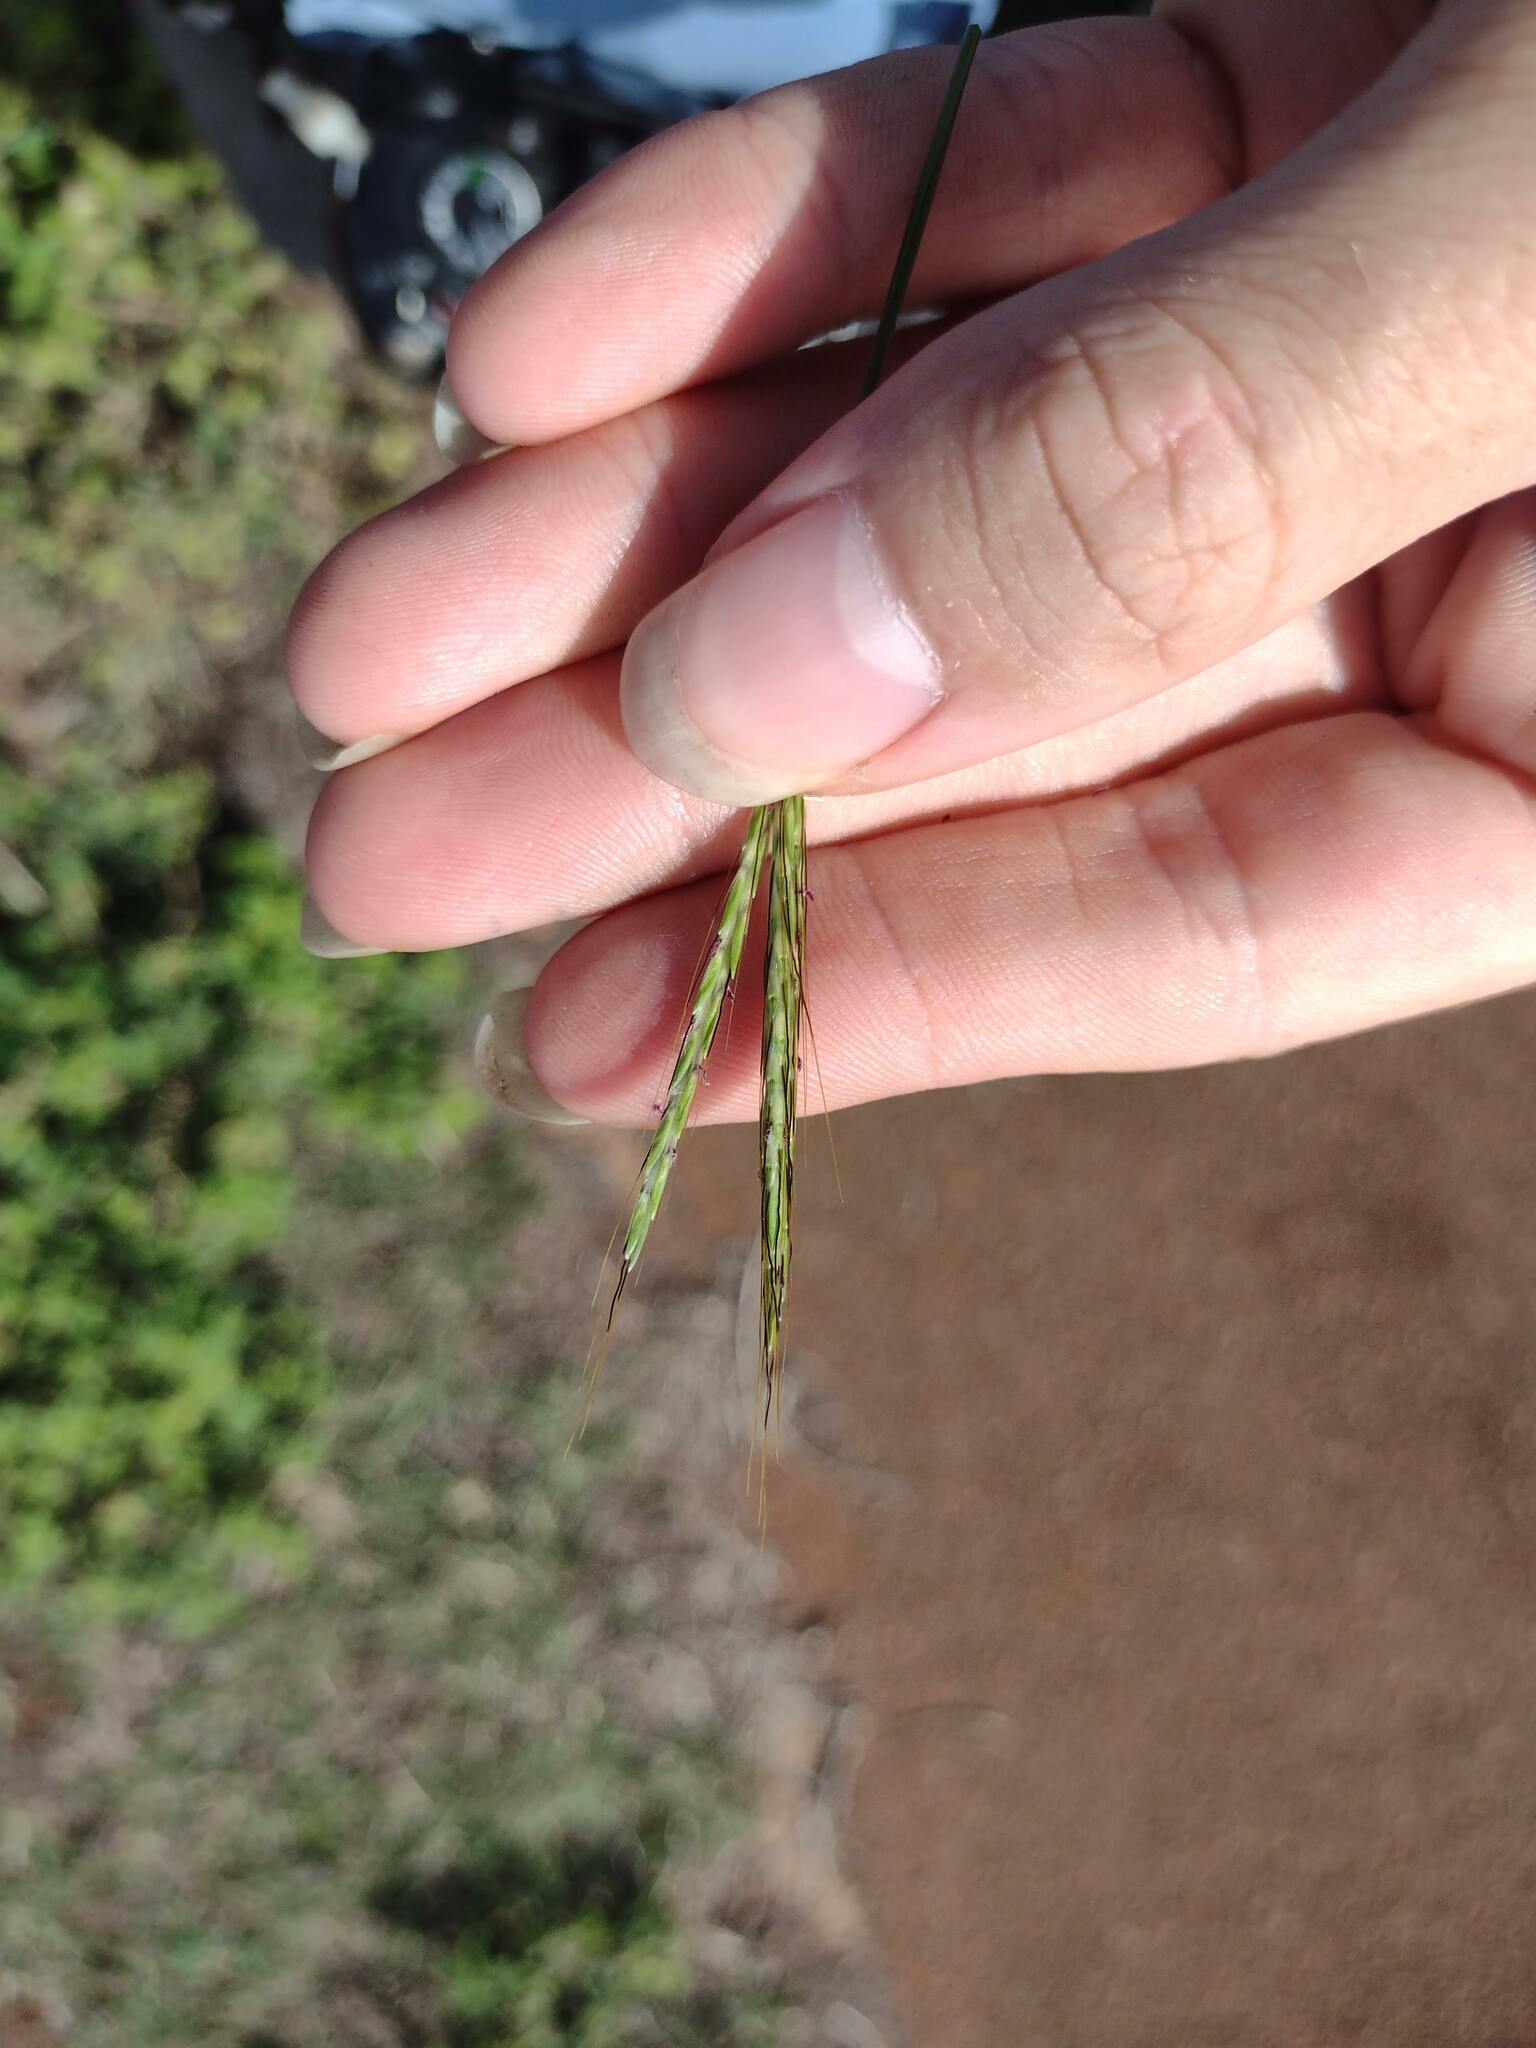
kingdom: Plantae
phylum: Tracheophyta
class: Liliopsida
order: Poales
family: Poaceae
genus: Bothriochloa
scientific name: Bothriochloa pertusa
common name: Pitted beardgrass
